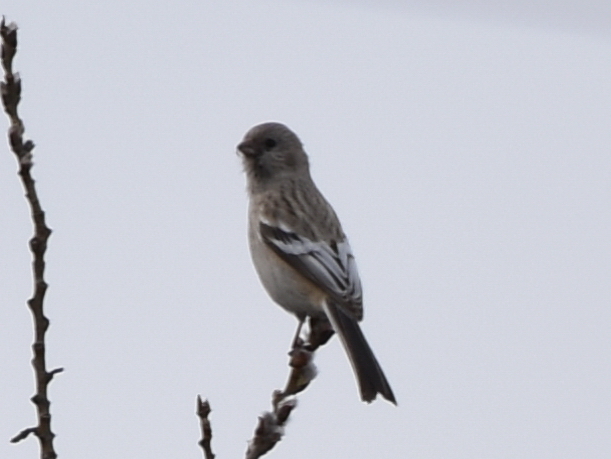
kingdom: Animalia
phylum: Chordata
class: Aves
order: Passeriformes
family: Fringillidae
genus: Carpodacus
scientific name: Carpodacus sibiricus
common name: Long-tailed rosefinch
